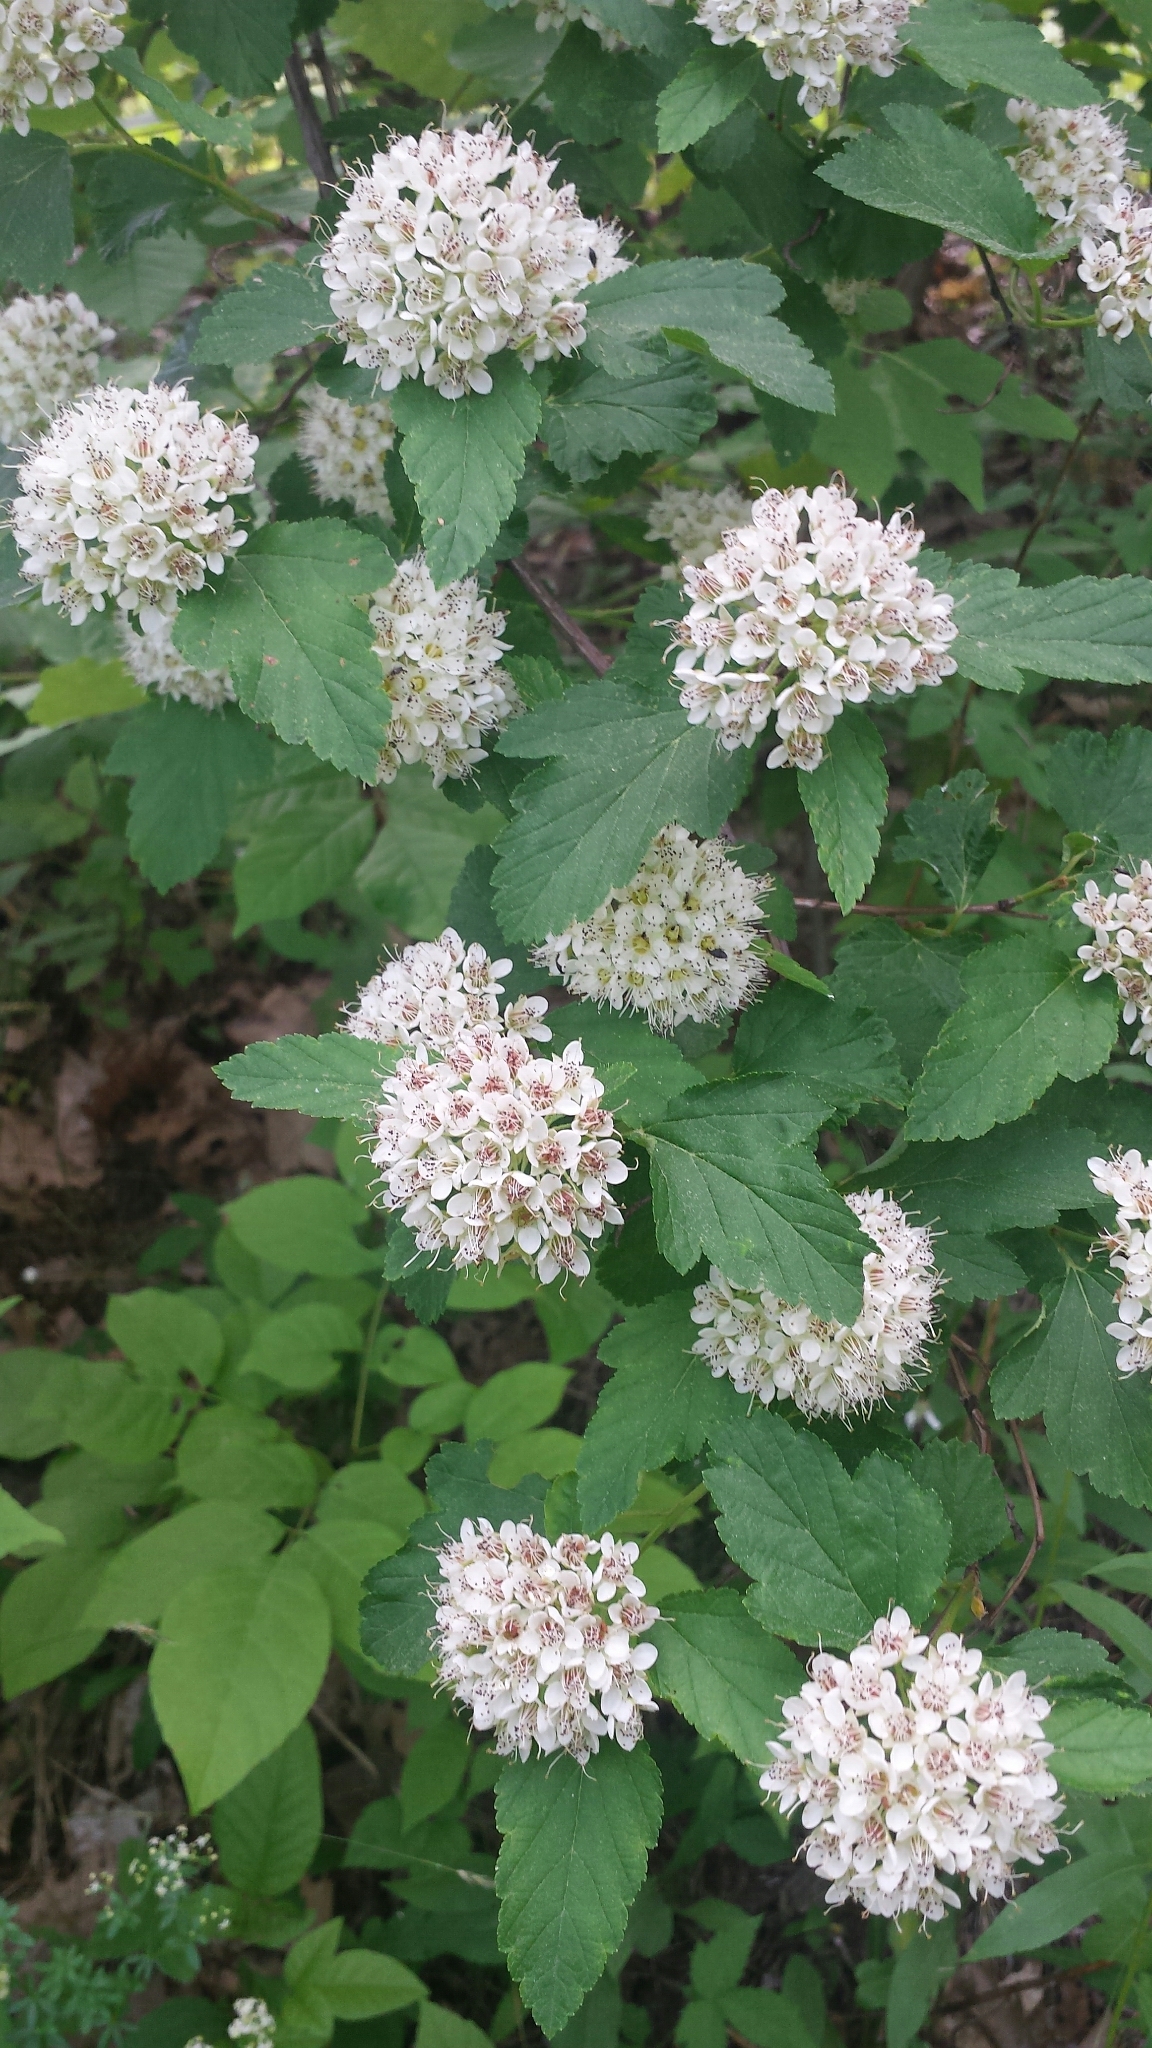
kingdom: Plantae
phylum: Tracheophyta
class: Magnoliopsida
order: Rosales
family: Rosaceae
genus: Physocarpus
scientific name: Physocarpus opulifolius
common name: Ninebark
